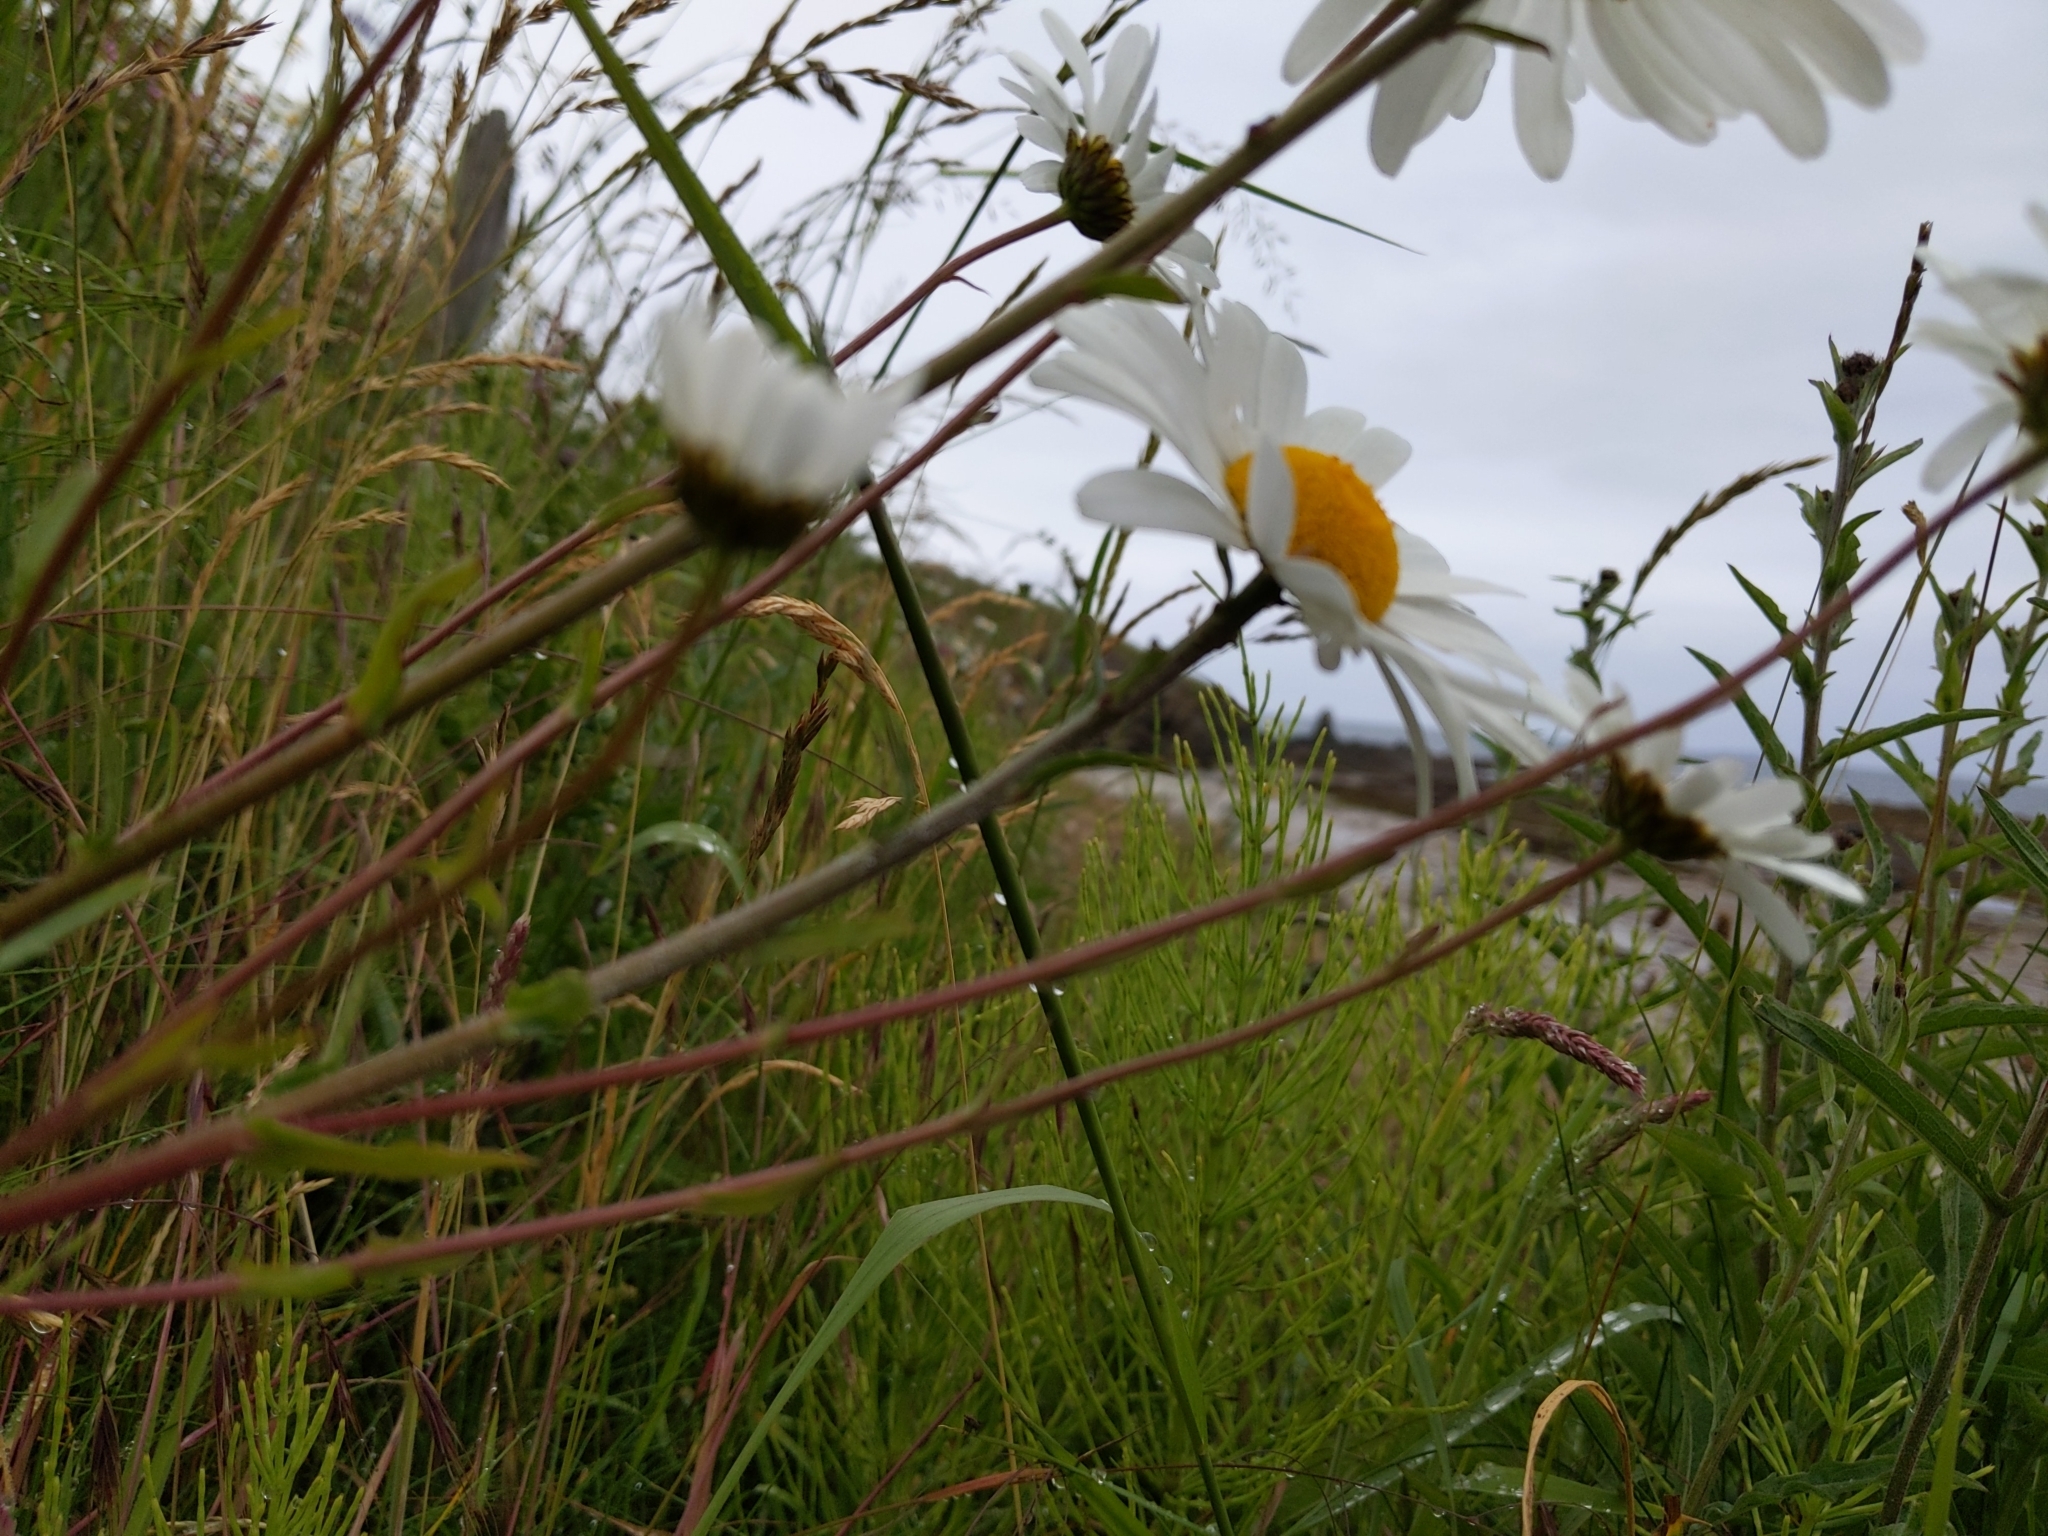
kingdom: Plantae
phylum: Tracheophyta
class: Magnoliopsida
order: Asterales
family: Asteraceae
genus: Leucanthemum
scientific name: Leucanthemum vulgare
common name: Oxeye daisy
